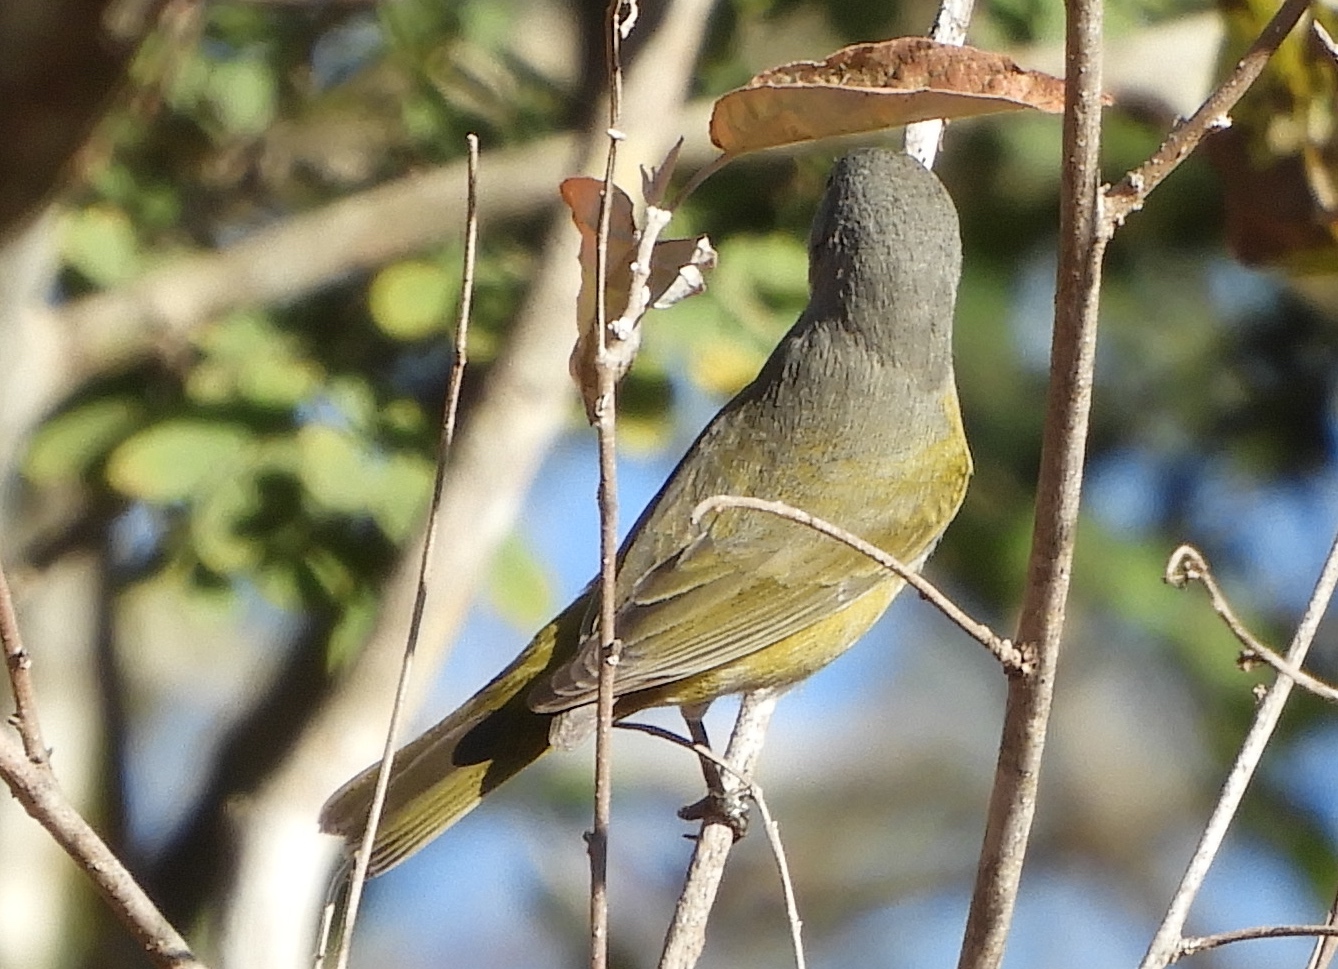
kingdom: Animalia
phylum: Chordata
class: Aves
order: Passeriformes
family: Parulidae
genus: Leiothlypis
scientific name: Leiothlypis ruficapilla
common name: Nashville warbler
